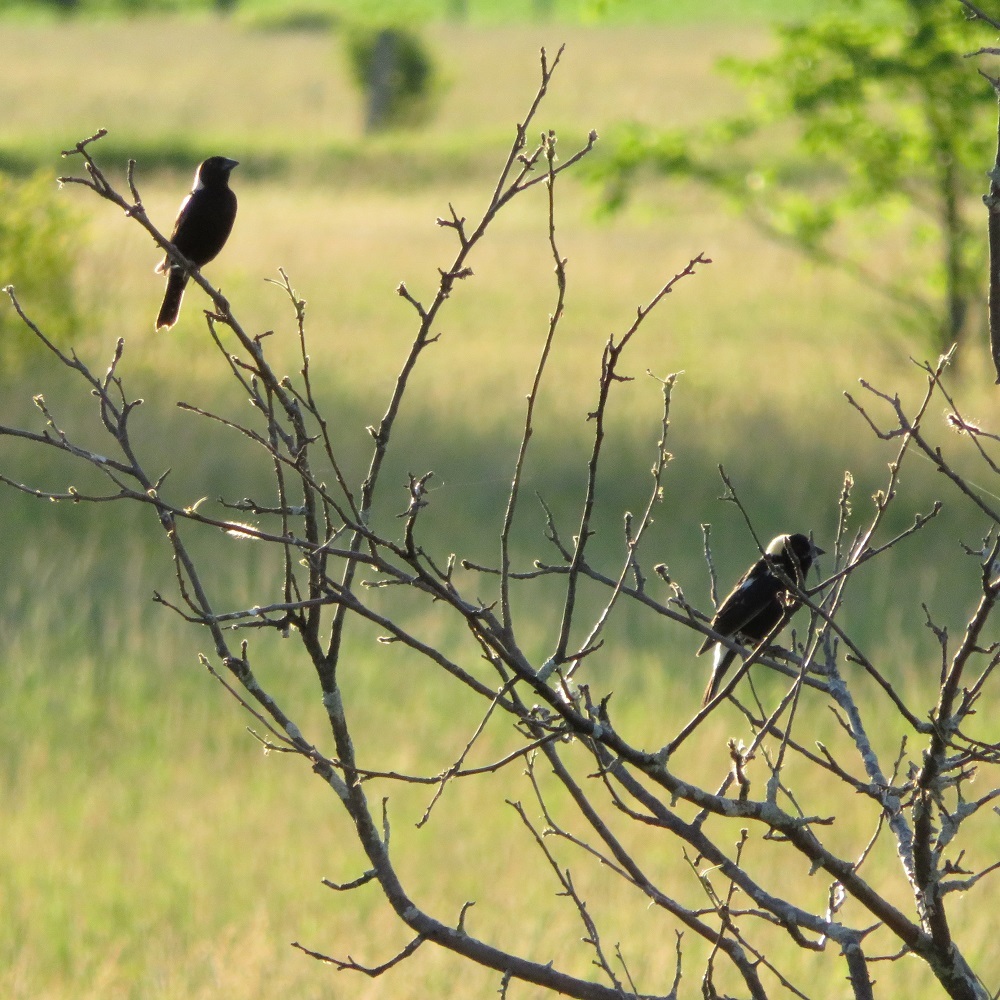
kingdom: Animalia
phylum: Chordata
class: Aves
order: Passeriformes
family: Icteridae
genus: Dolichonyx
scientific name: Dolichonyx oryzivorus
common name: Bobolink
